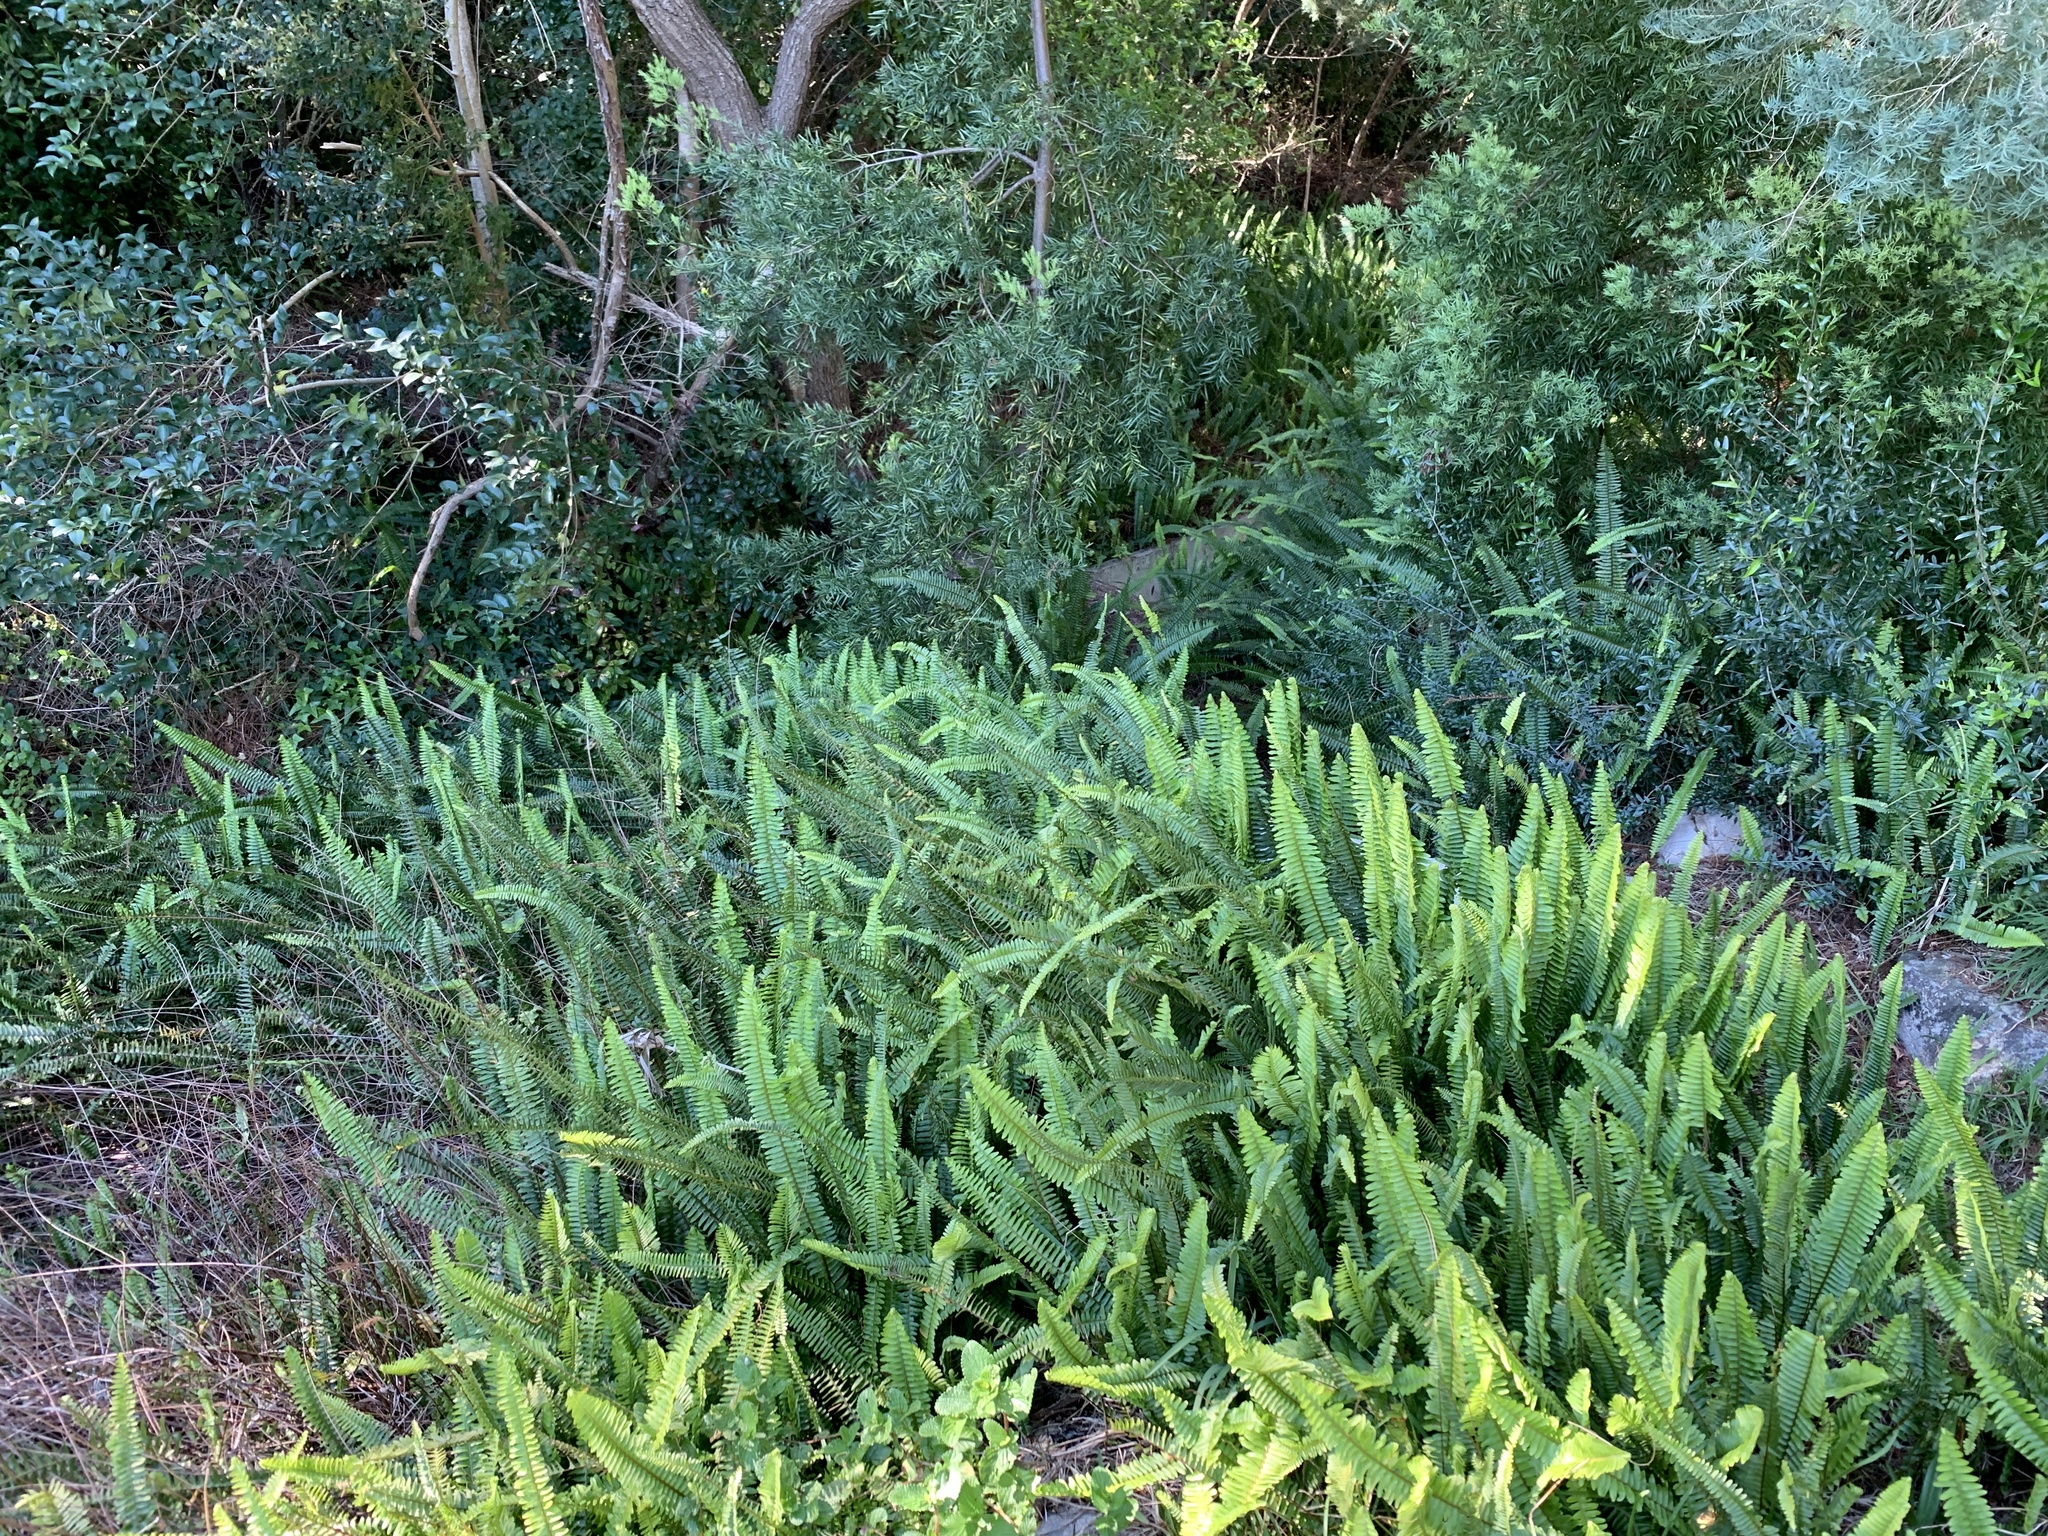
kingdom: Plantae
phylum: Tracheophyta
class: Polypodiopsida
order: Polypodiales
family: Nephrolepidaceae
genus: Nephrolepis
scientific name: Nephrolepis cordifolia
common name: Narrow swordfern
